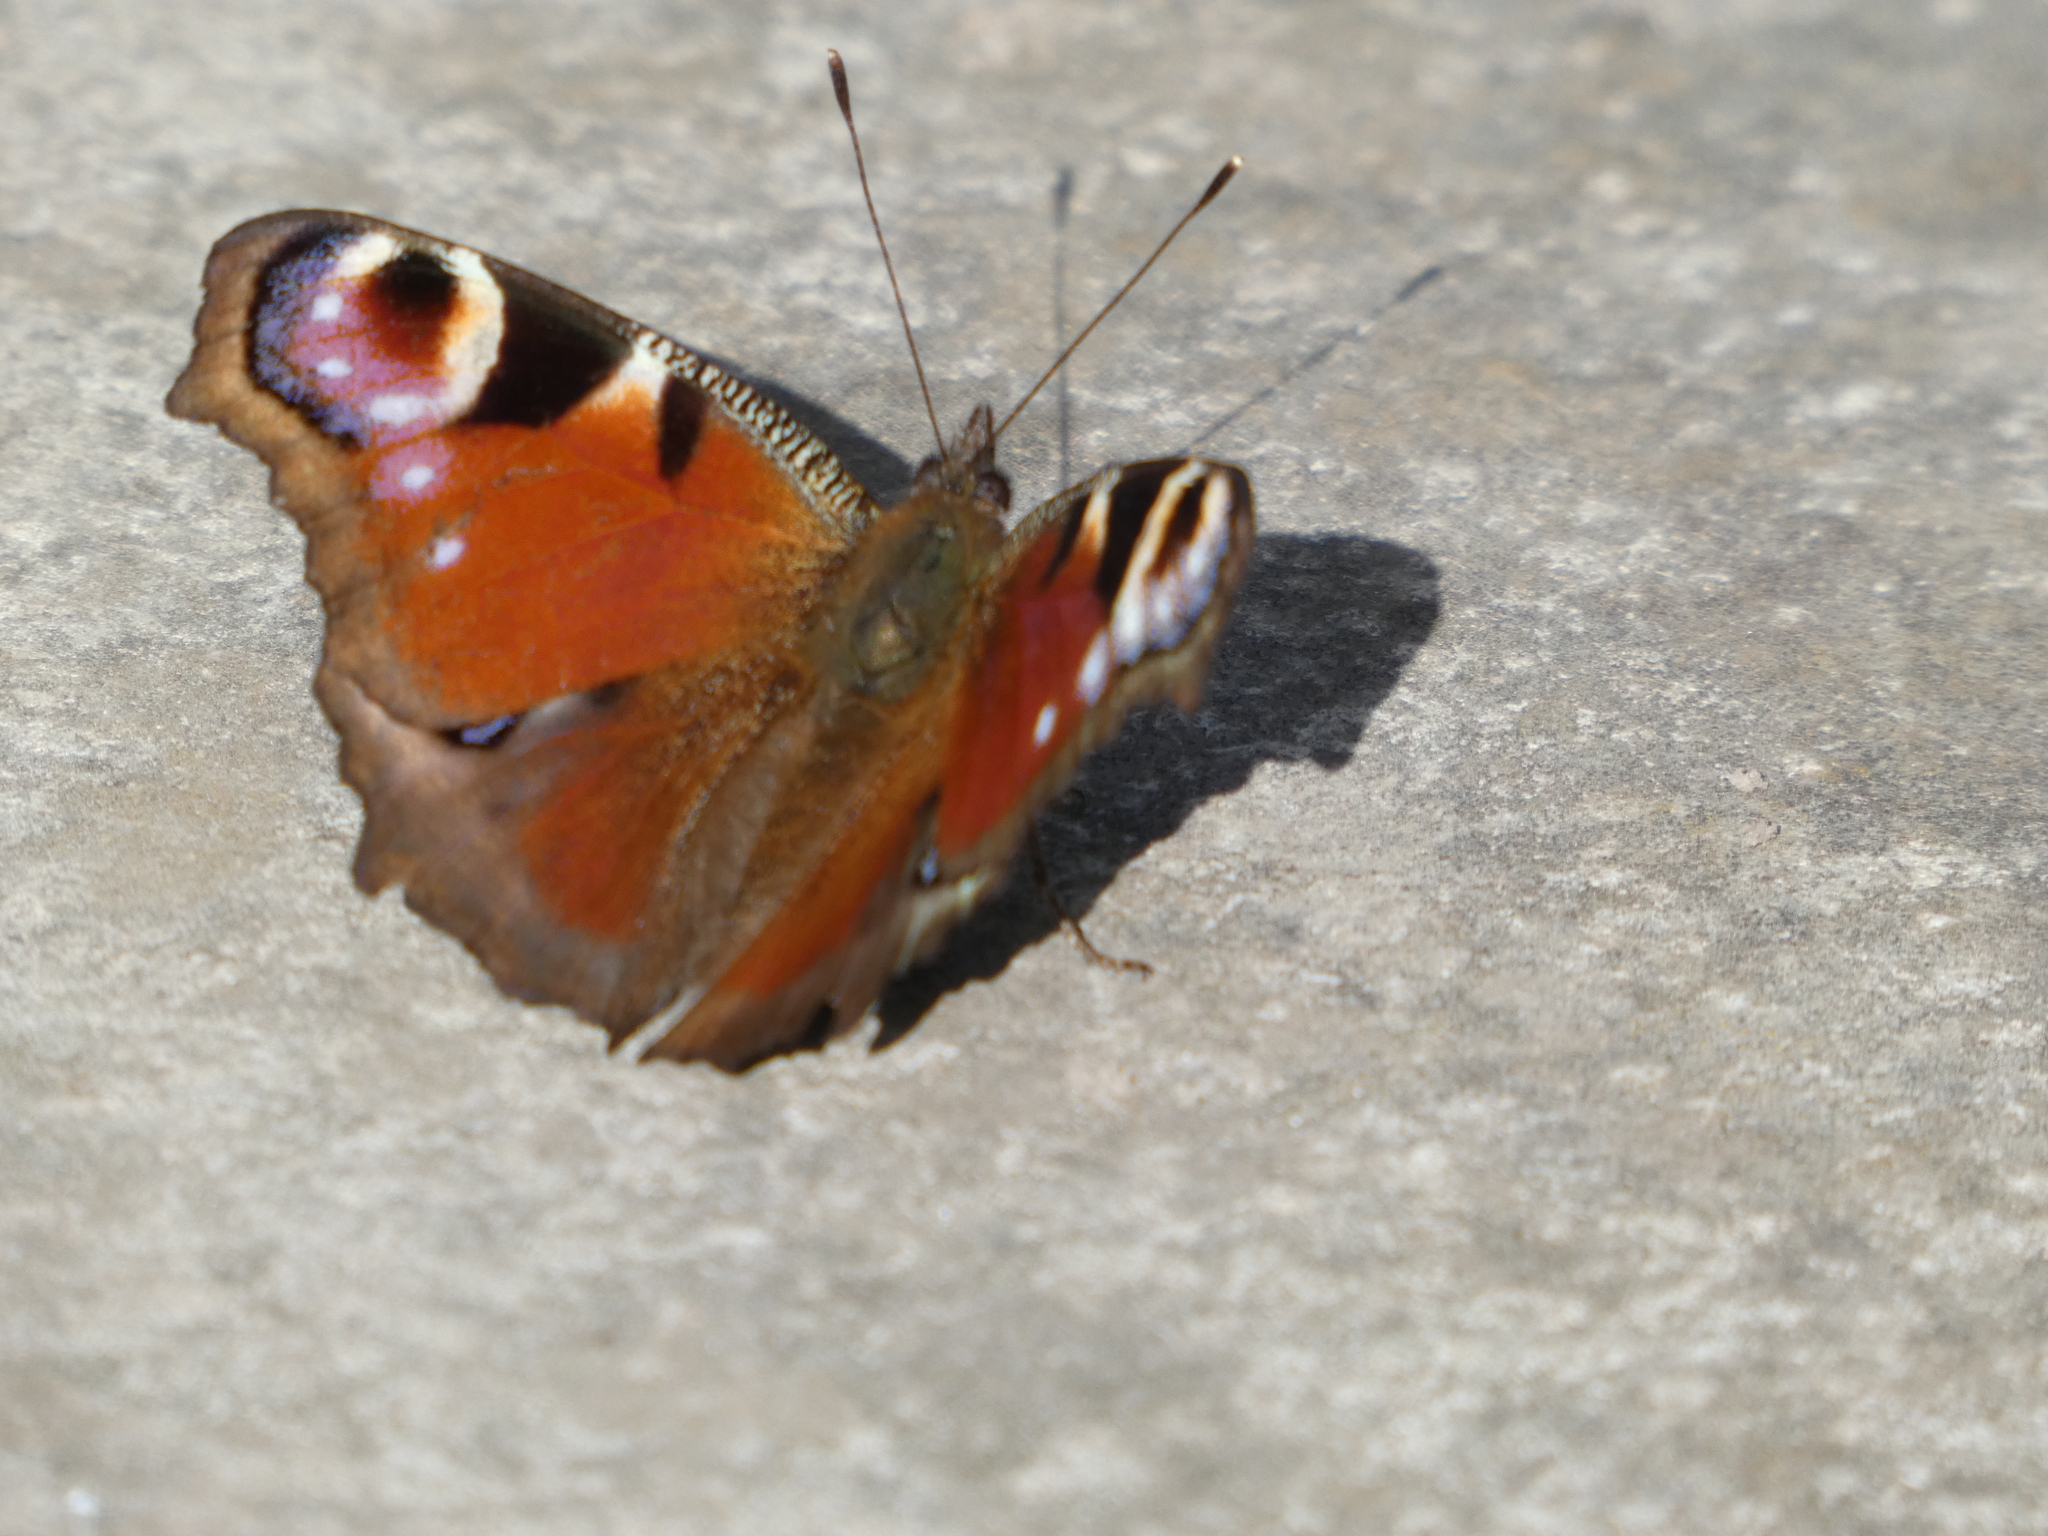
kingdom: Animalia
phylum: Arthropoda
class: Insecta
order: Lepidoptera
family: Nymphalidae
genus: Aglais
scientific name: Aglais io
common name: Peacock
